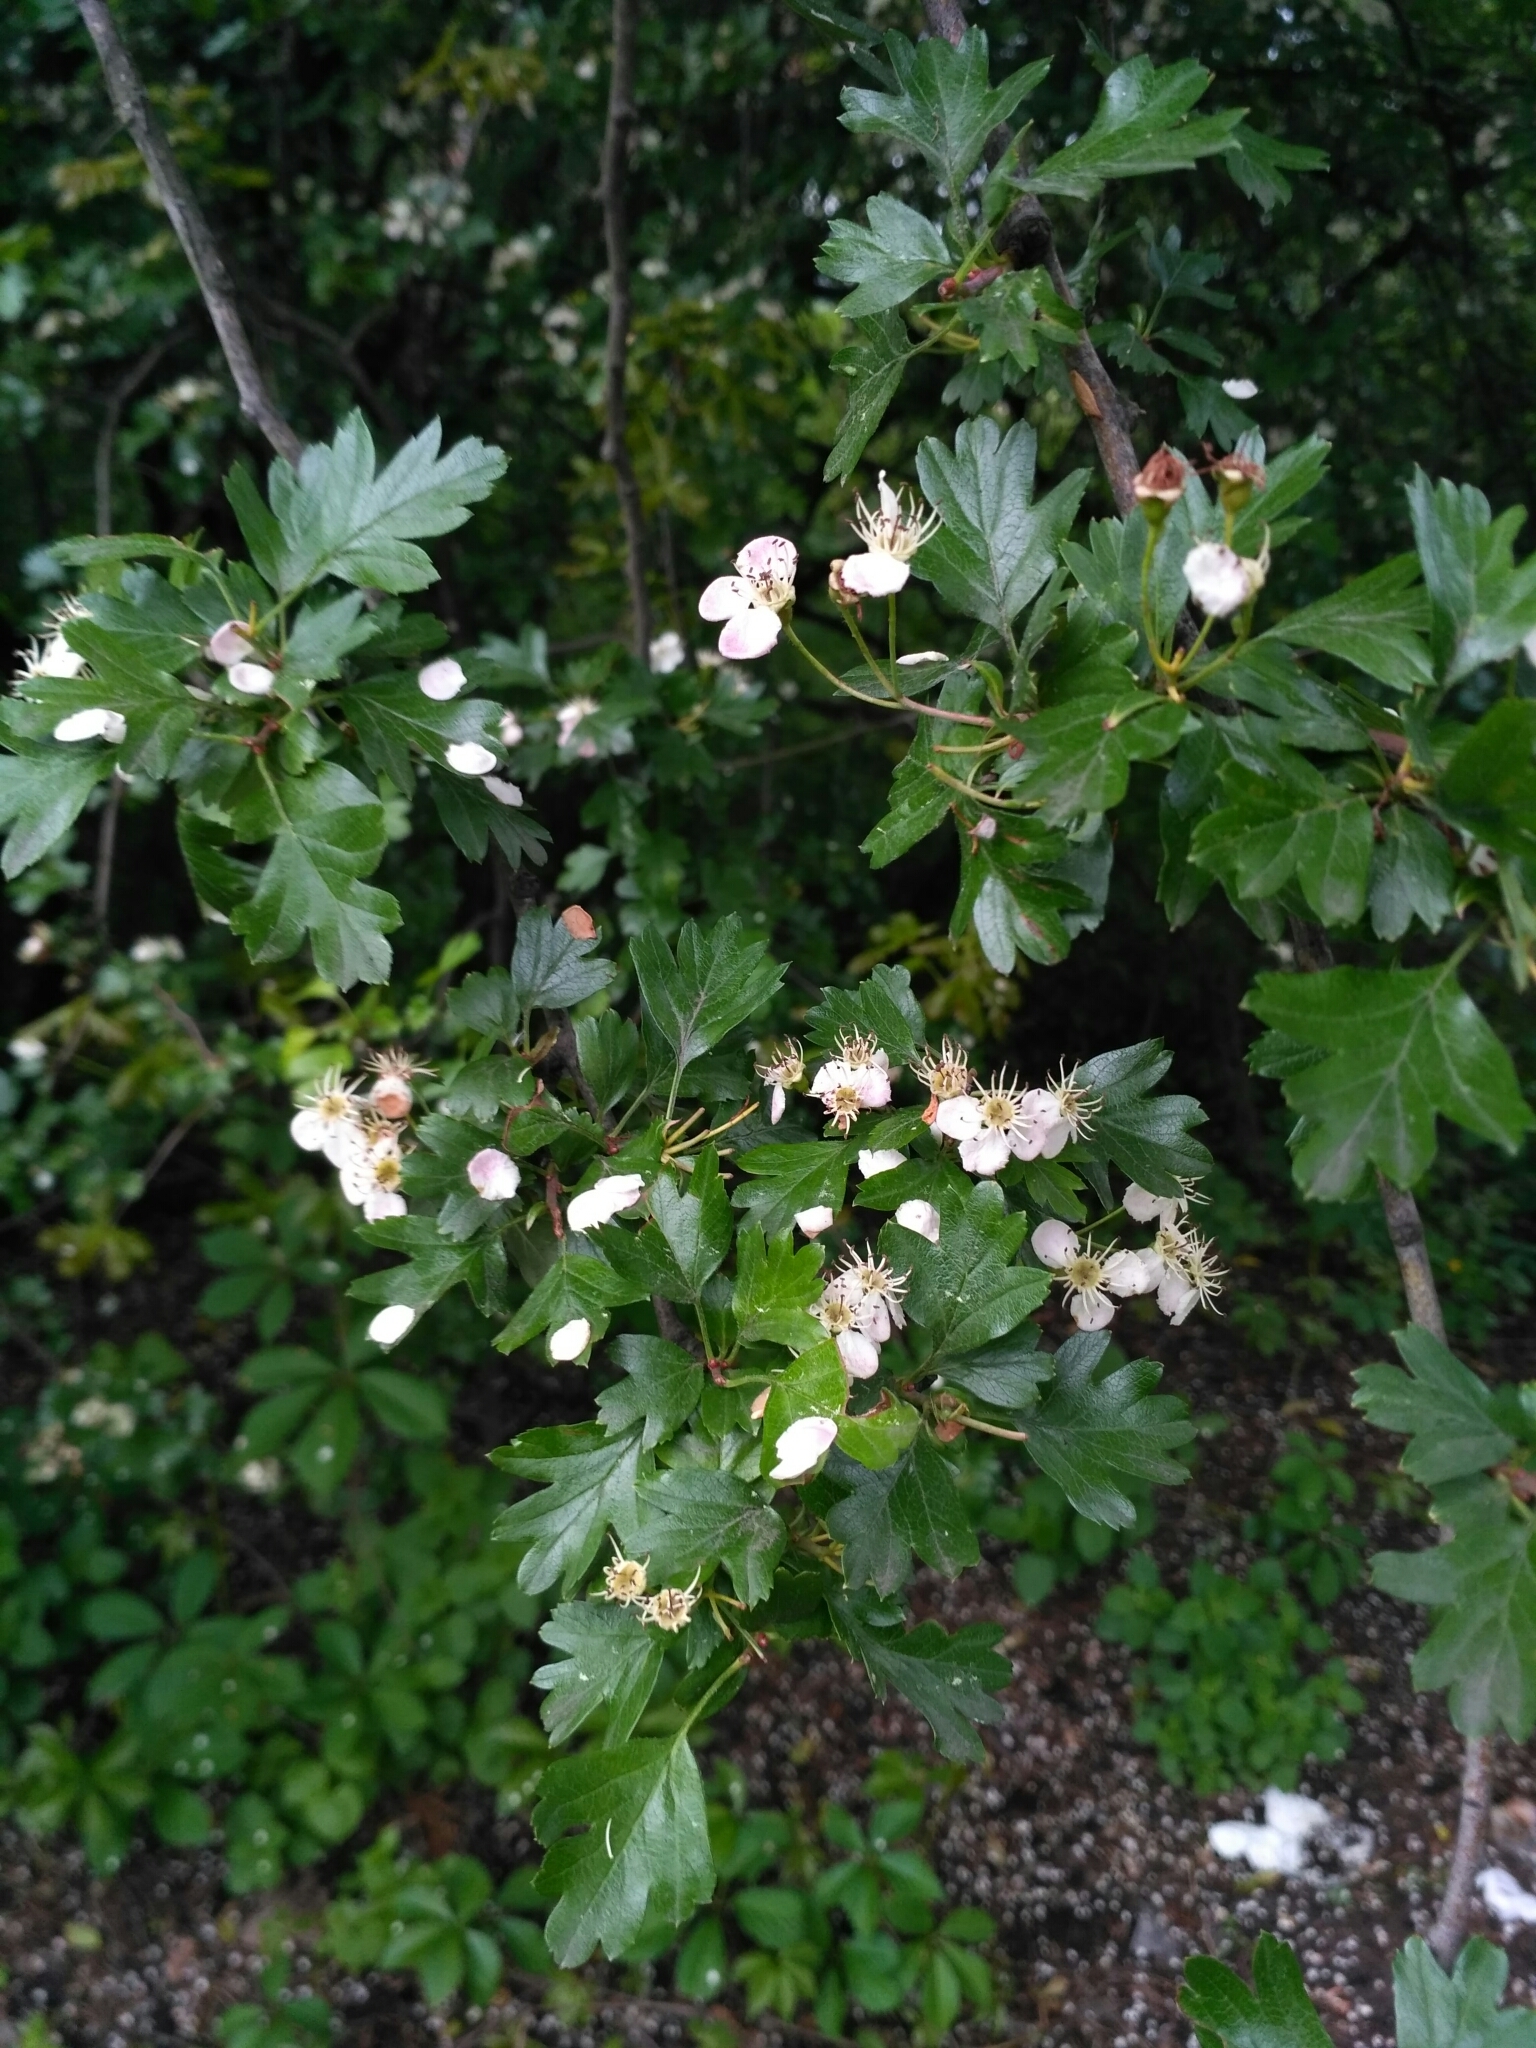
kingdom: Plantae
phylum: Tracheophyta
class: Magnoliopsida
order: Rosales
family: Rosaceae
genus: Crataegus
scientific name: Crataegus monogyna
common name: Hawthorn
